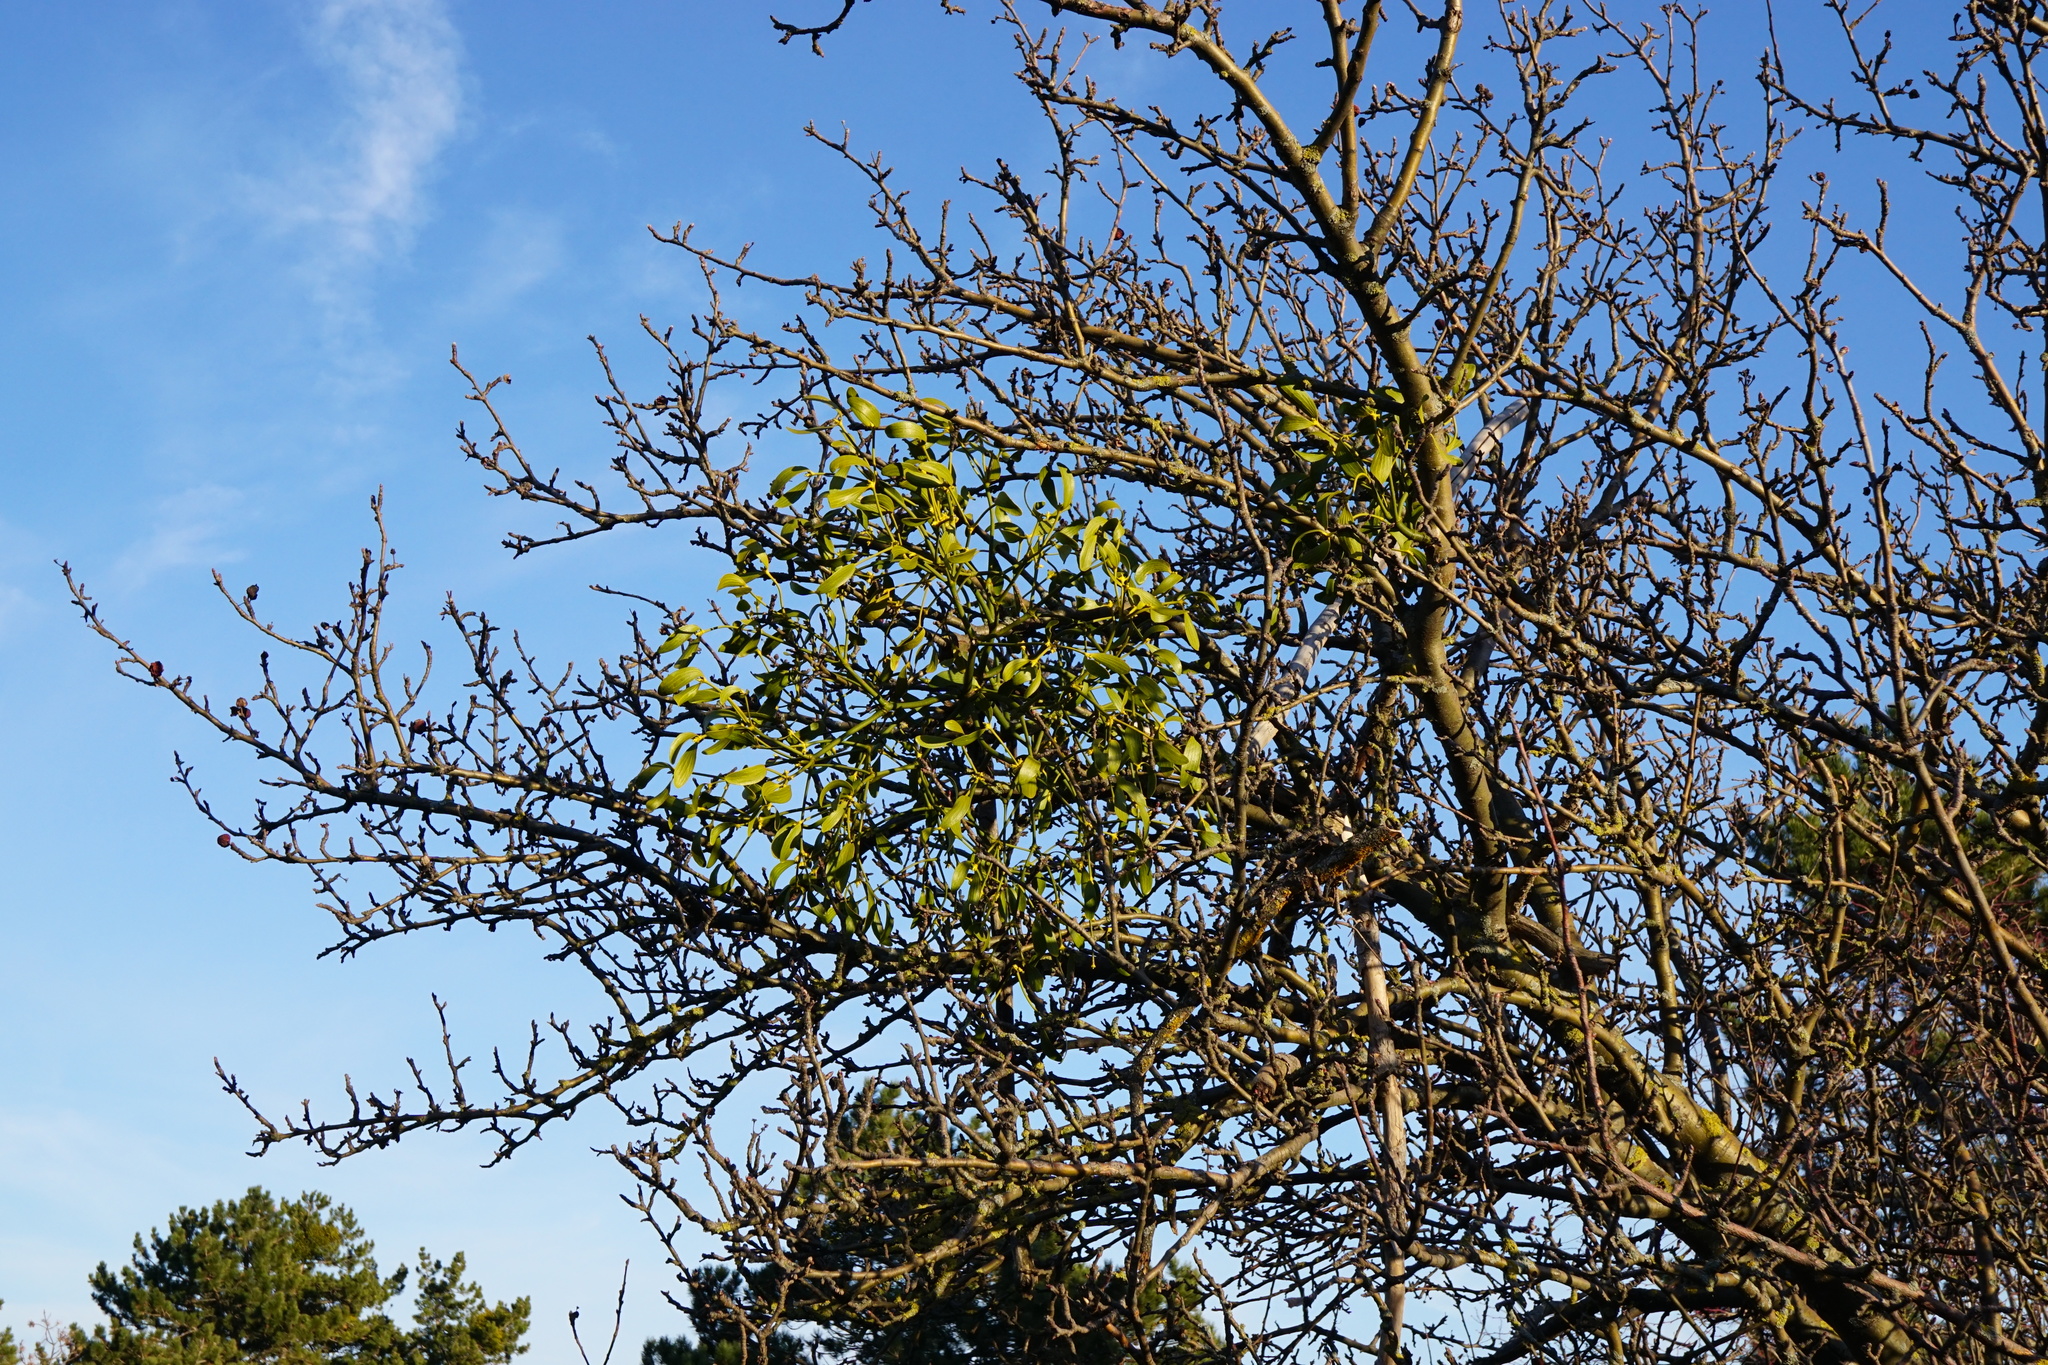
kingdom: Plantae
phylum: Tracheophyta
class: Magnoliopsida
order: Santalales
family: Viscaceae
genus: Viscum
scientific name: Viscum album
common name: Mistletoe
